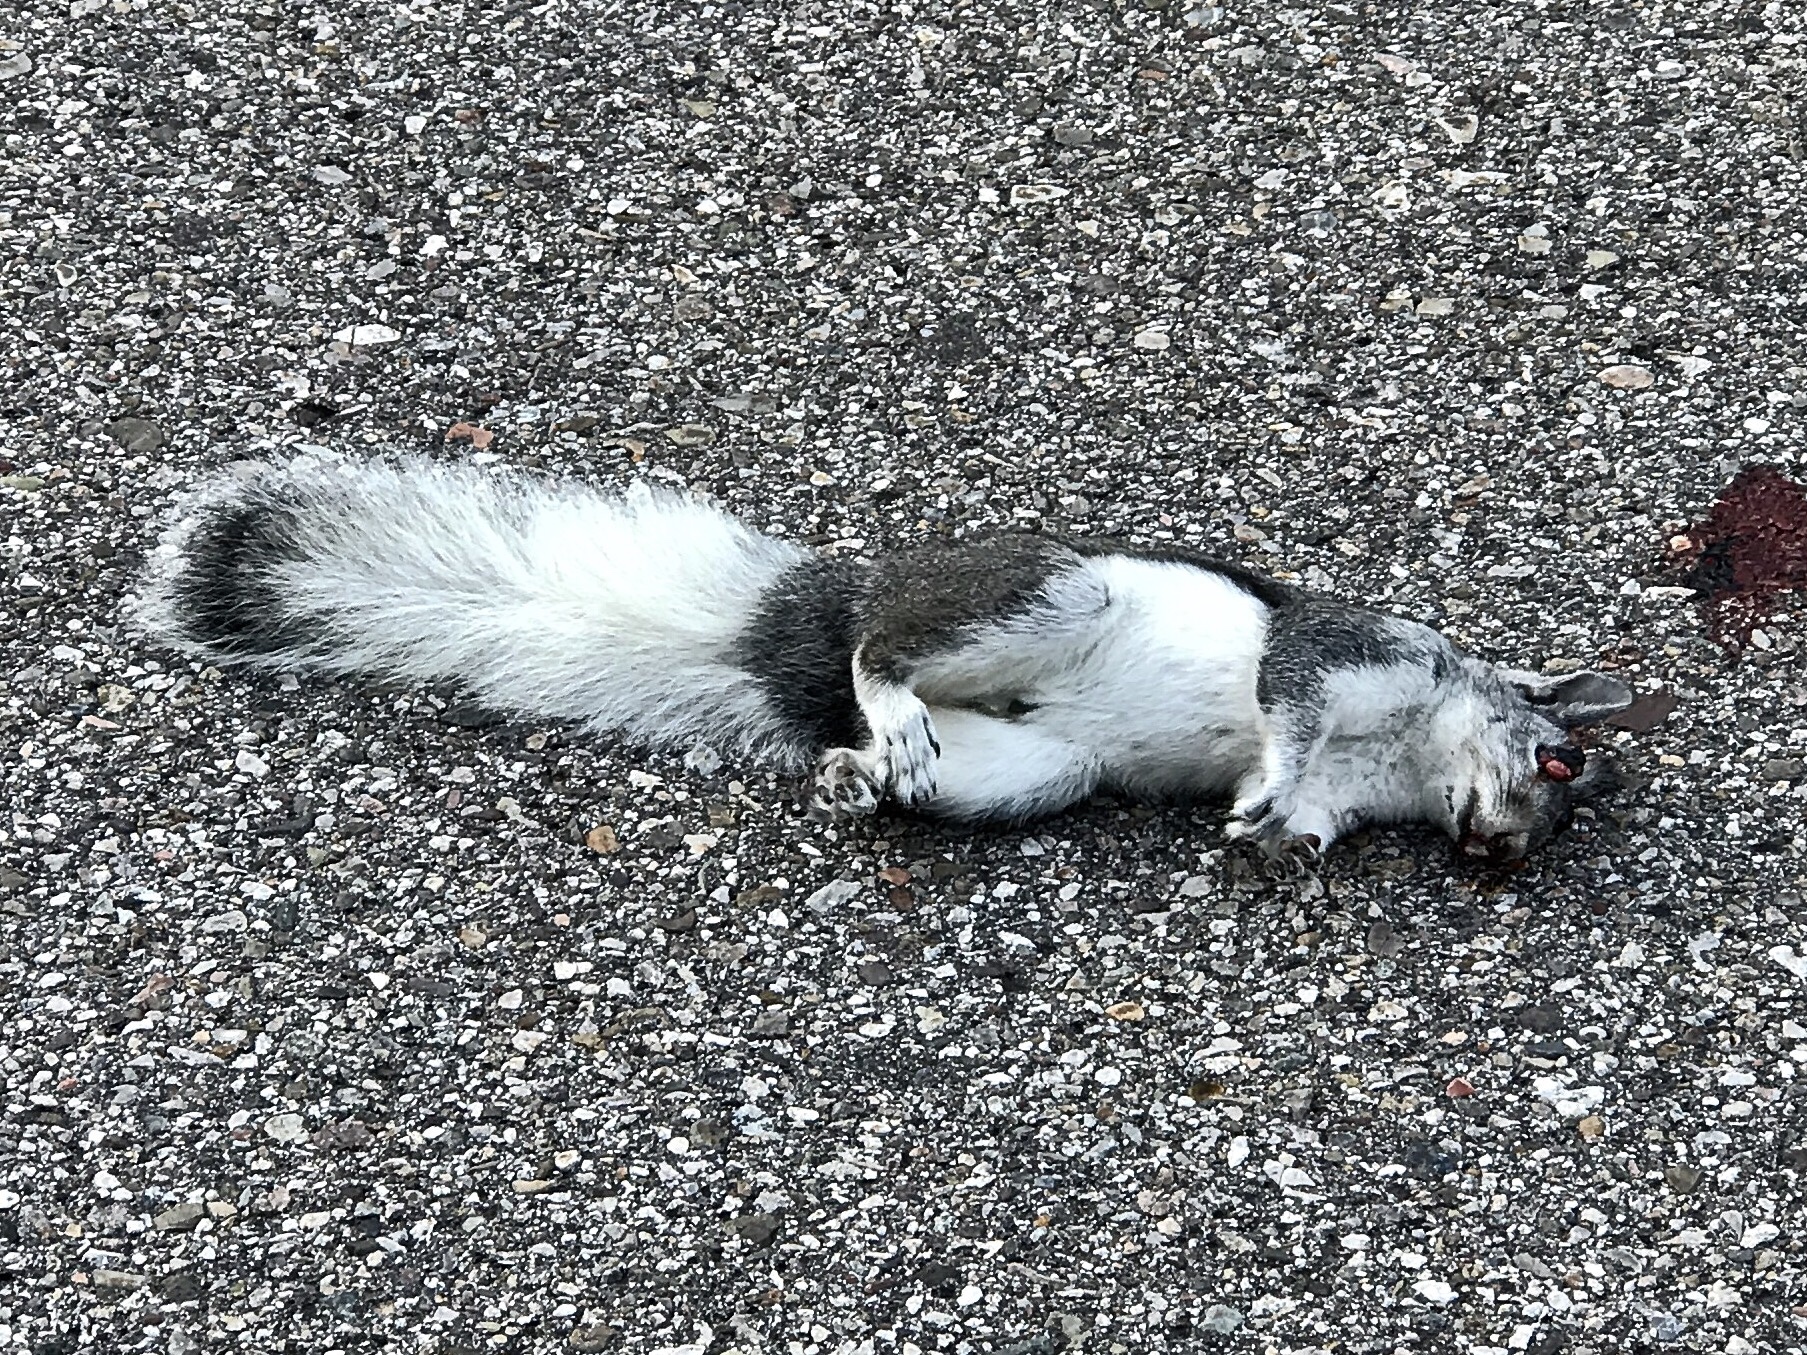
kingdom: Animalia
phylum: Chordata
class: Mammalia
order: Rodentia
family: Sciuridae
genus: Sciurus
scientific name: Sciurus aberti
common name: Abert's squirrel
